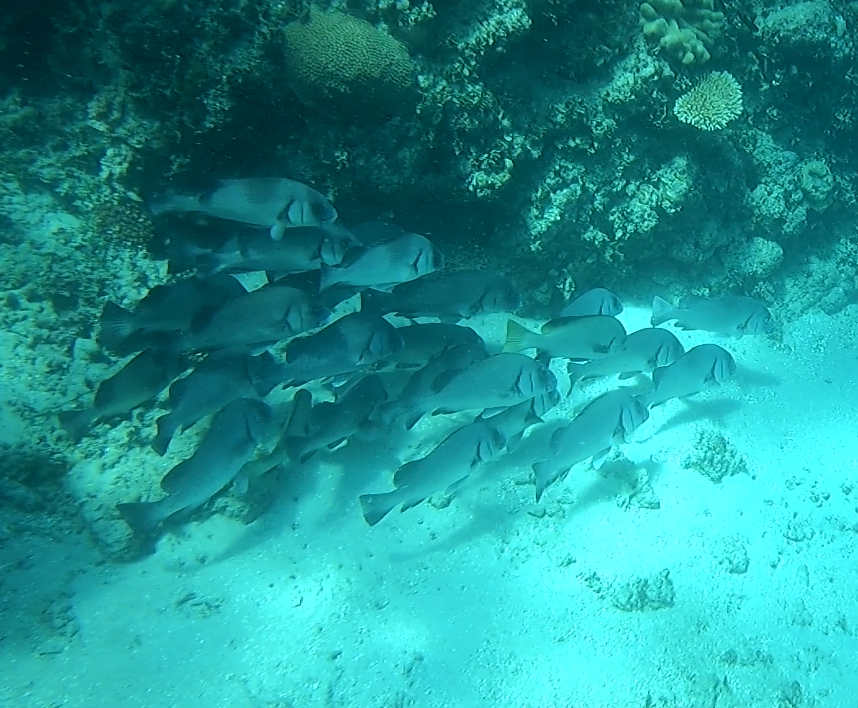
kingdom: Animalia
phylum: Chordata
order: Perciformes
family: Haemulidae
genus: Plectorhinchus
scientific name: Plectorhinchus gibbosus
